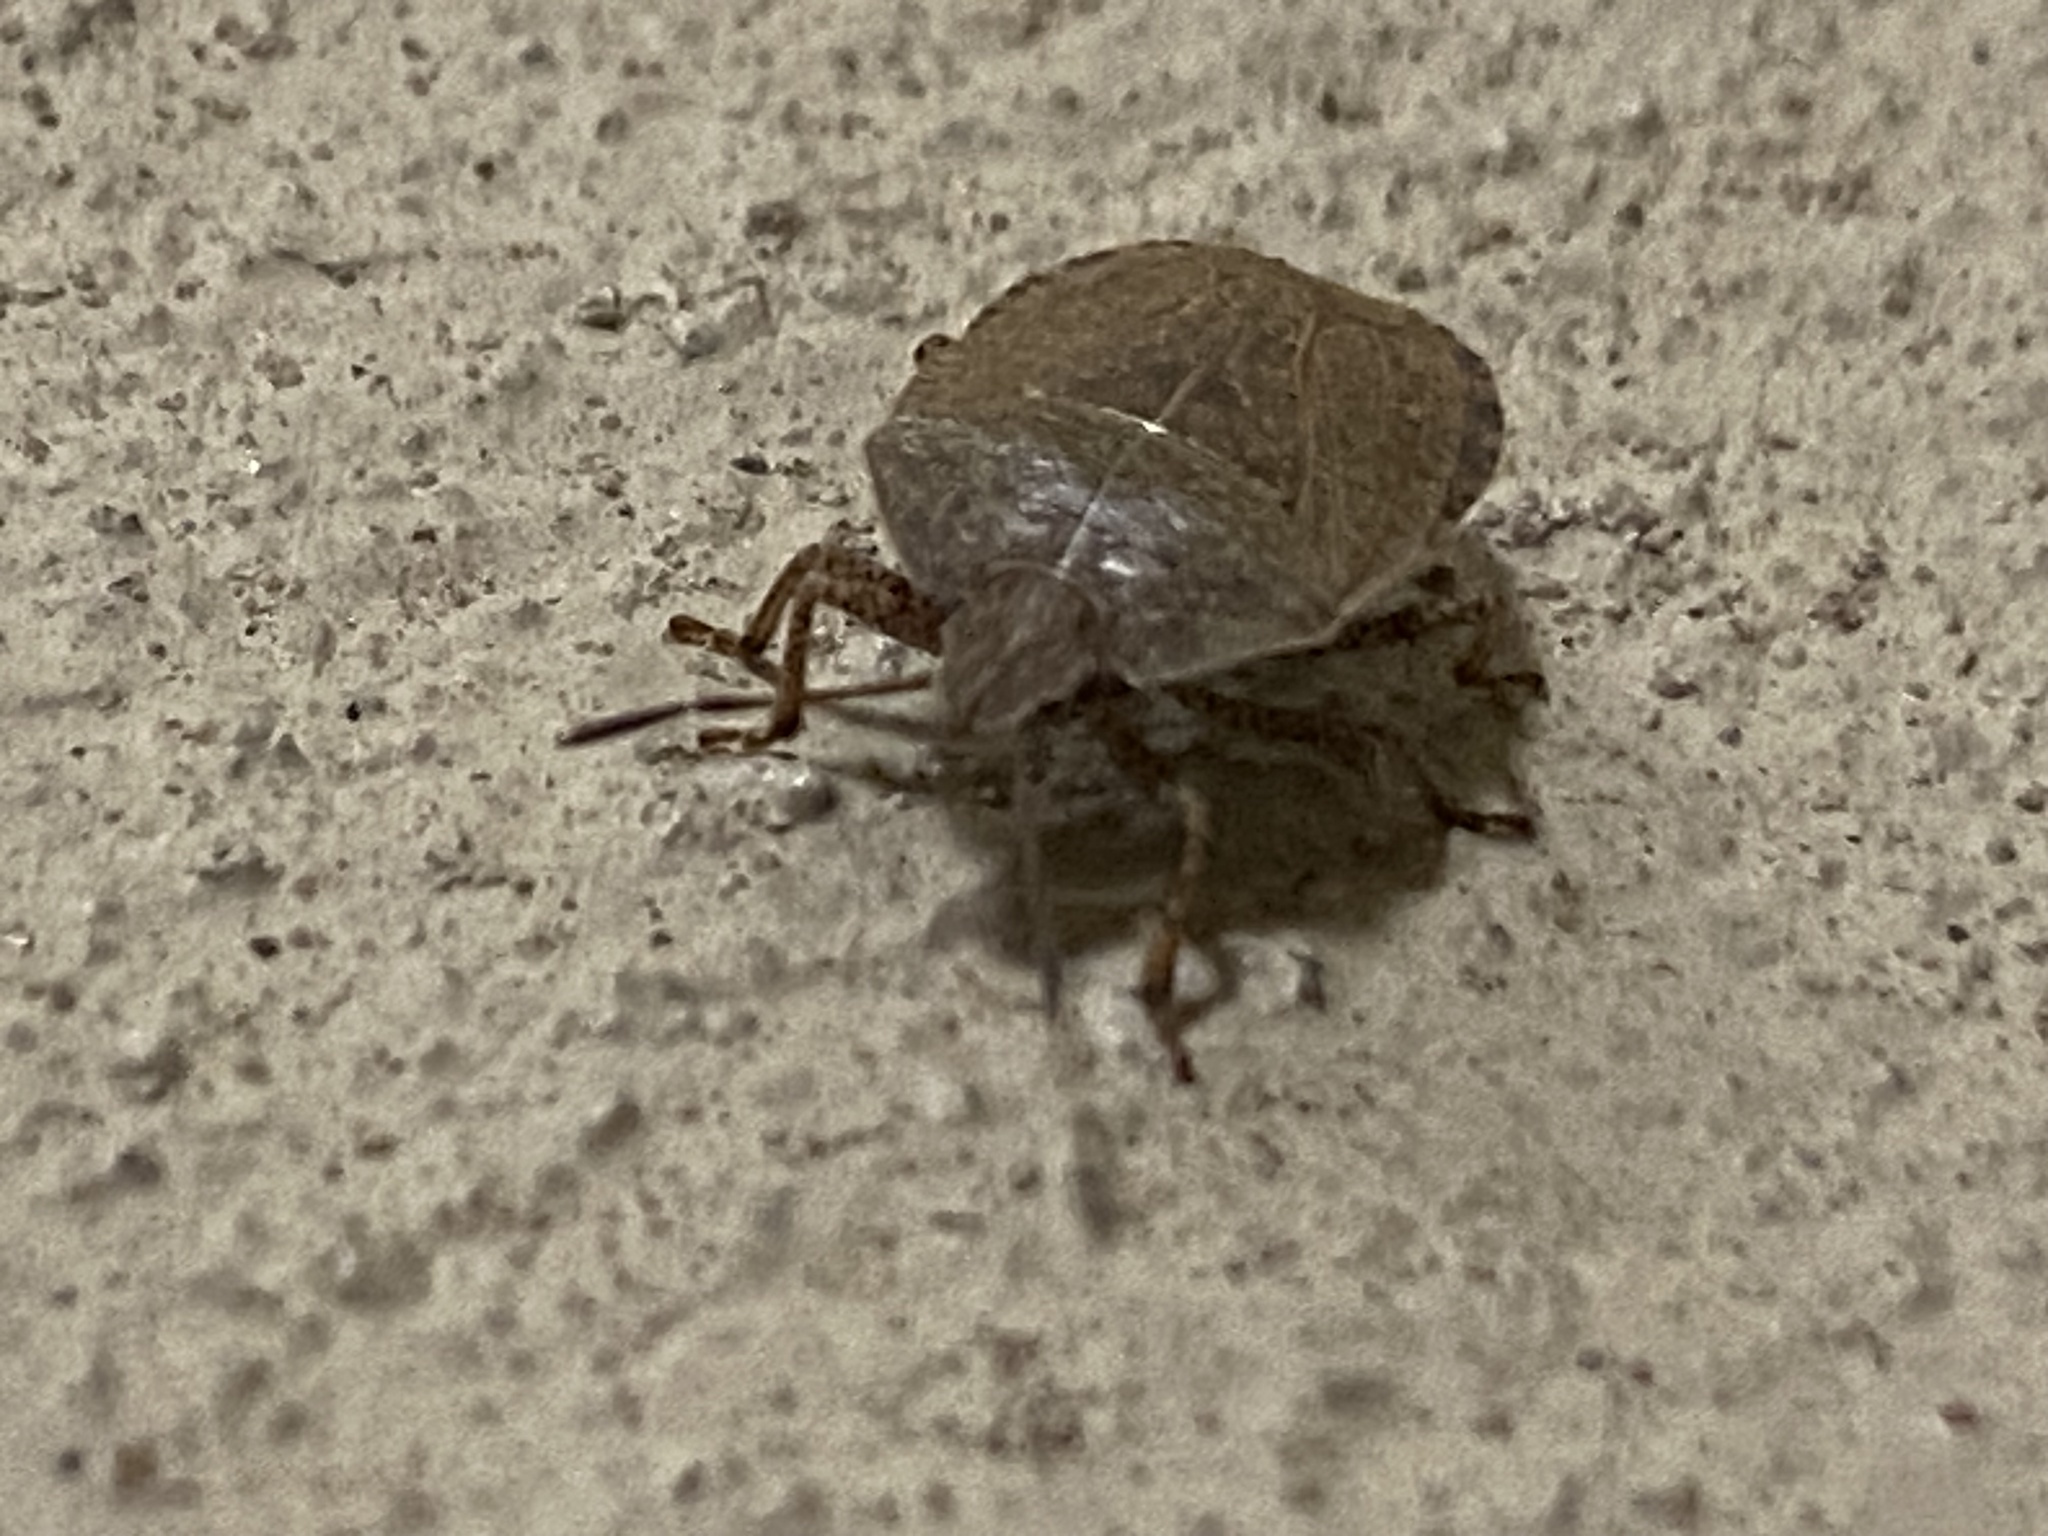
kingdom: Animalia
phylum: Arthropoda
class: Insecta
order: Hemiptera
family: Pentatomidae
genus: Menecles
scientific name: Menecles insertus
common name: Elf shoe stink bug
